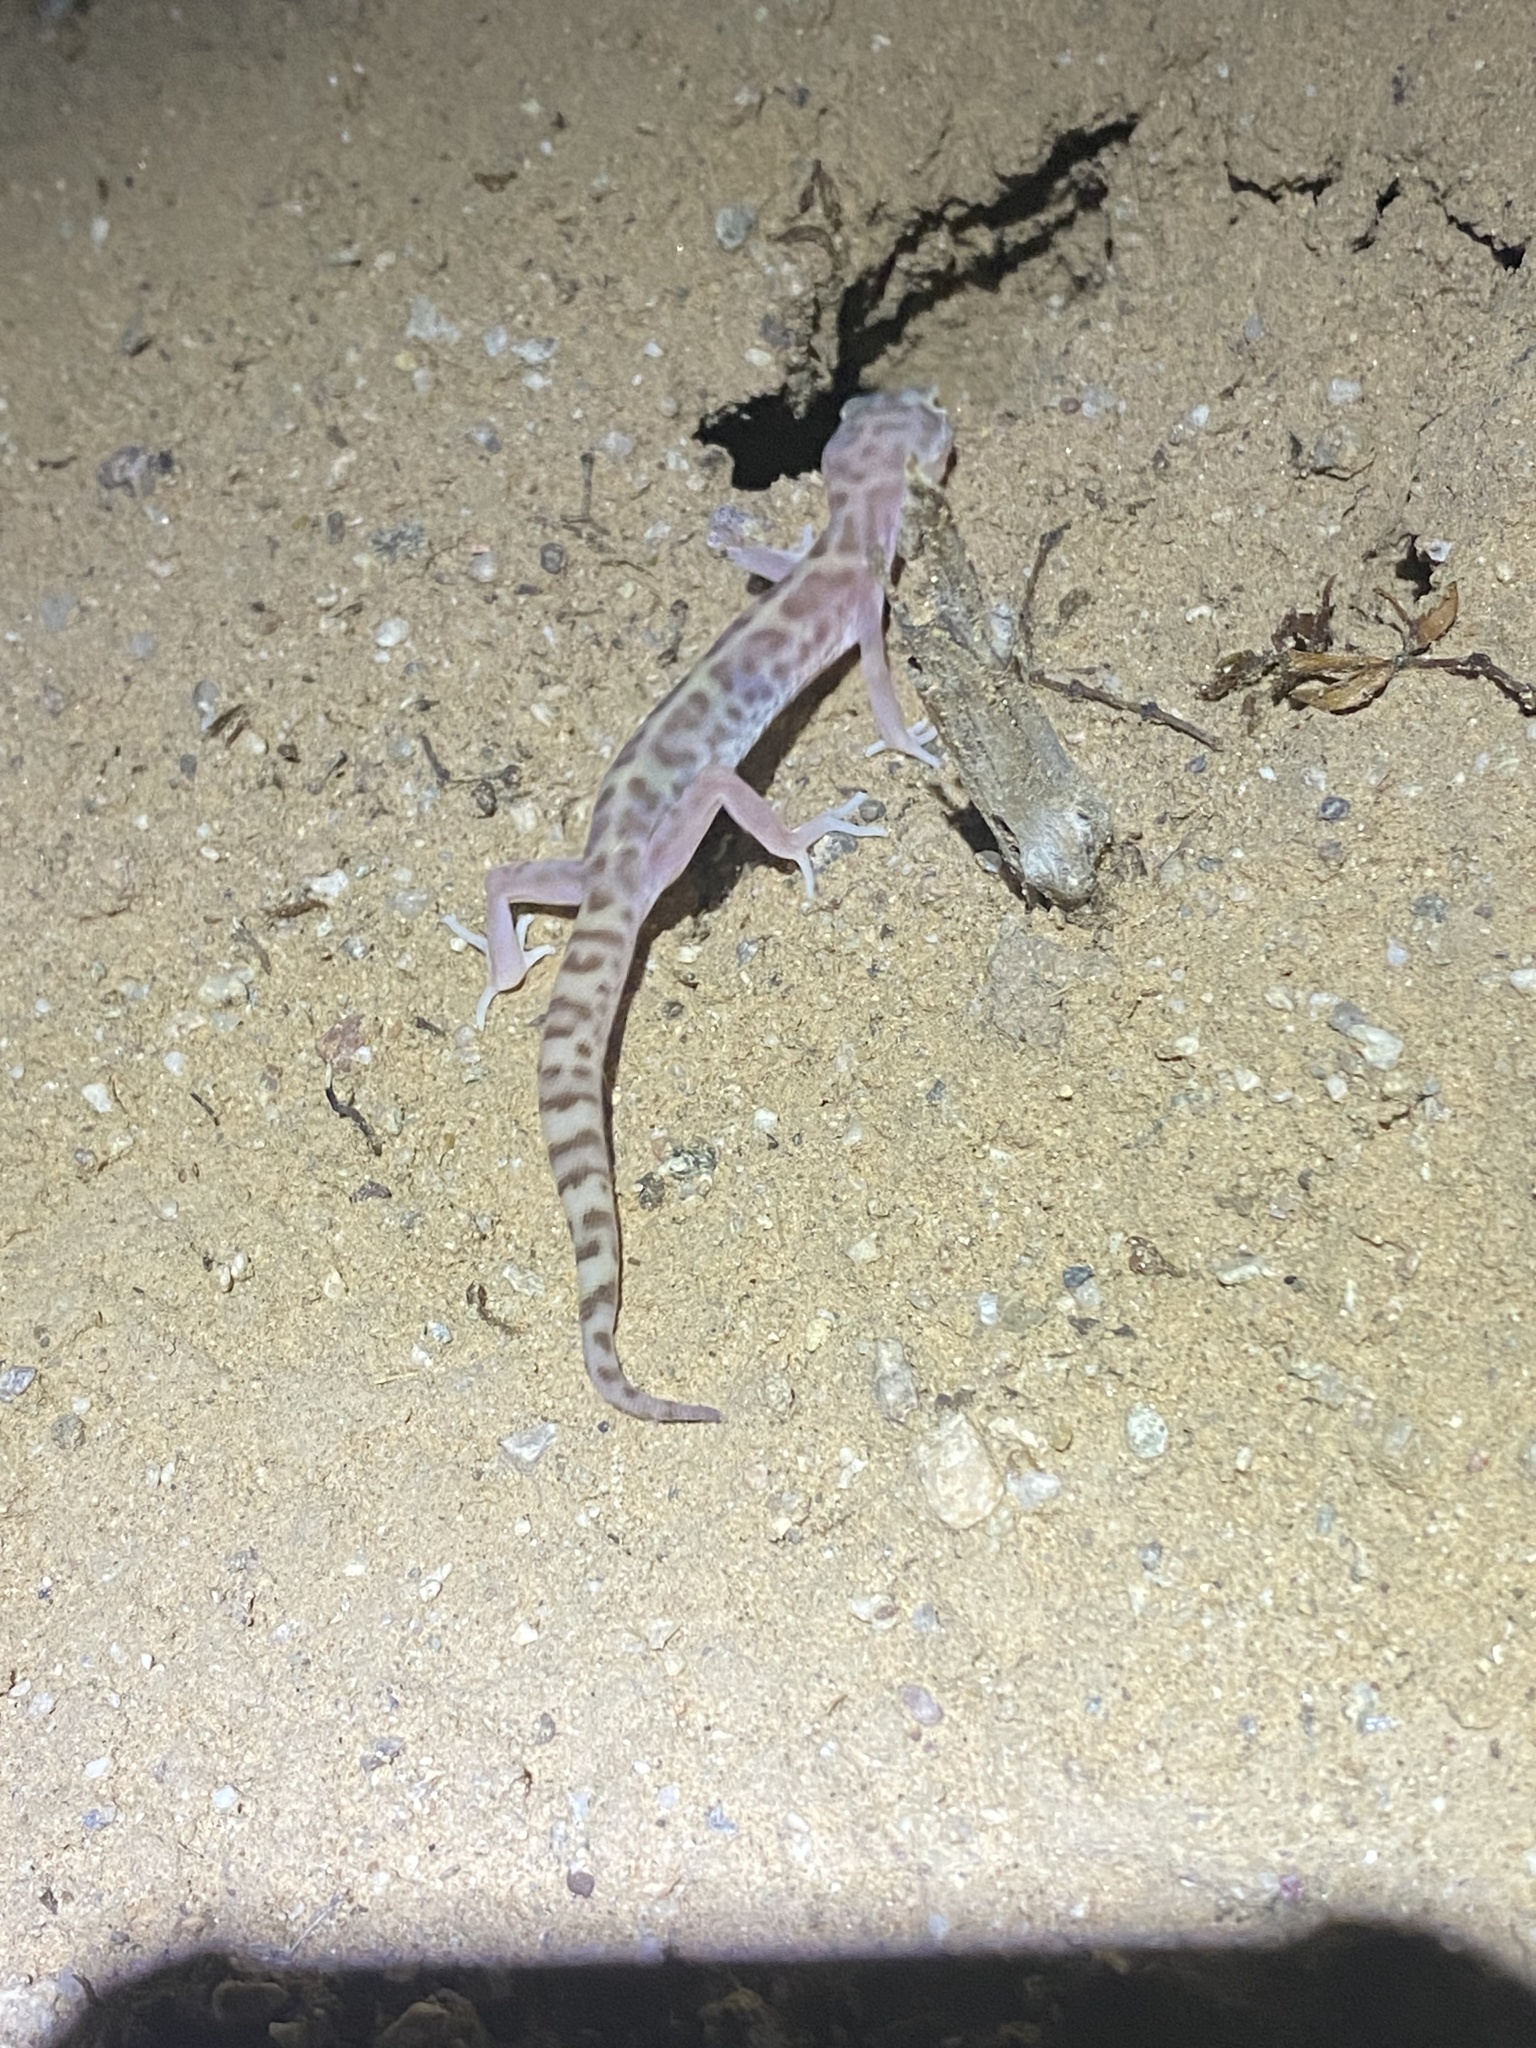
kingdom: Animalia
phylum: Chordata
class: Squamata
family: Eublepharidae
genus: Coleonyx
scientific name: Coleonyx variegatus
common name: Western banded gecko
